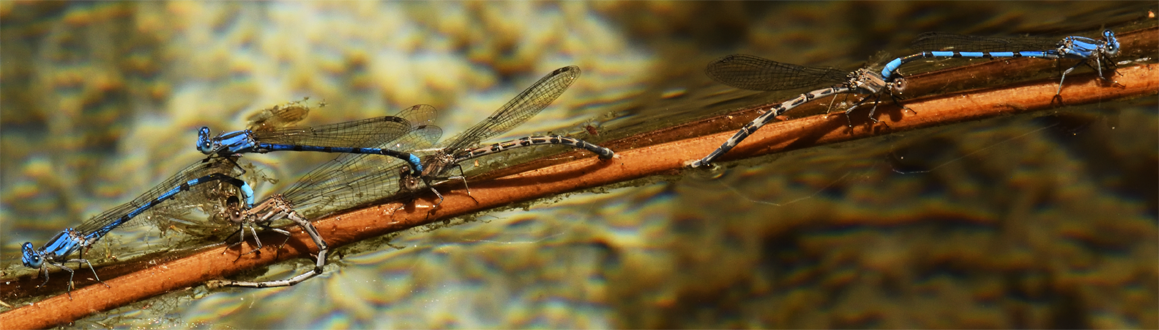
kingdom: Animalia
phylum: Arthropoda
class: Insecta
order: Odonata
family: Coenagrionidae
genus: Argia
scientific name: Argia agrioides
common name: California dancer
